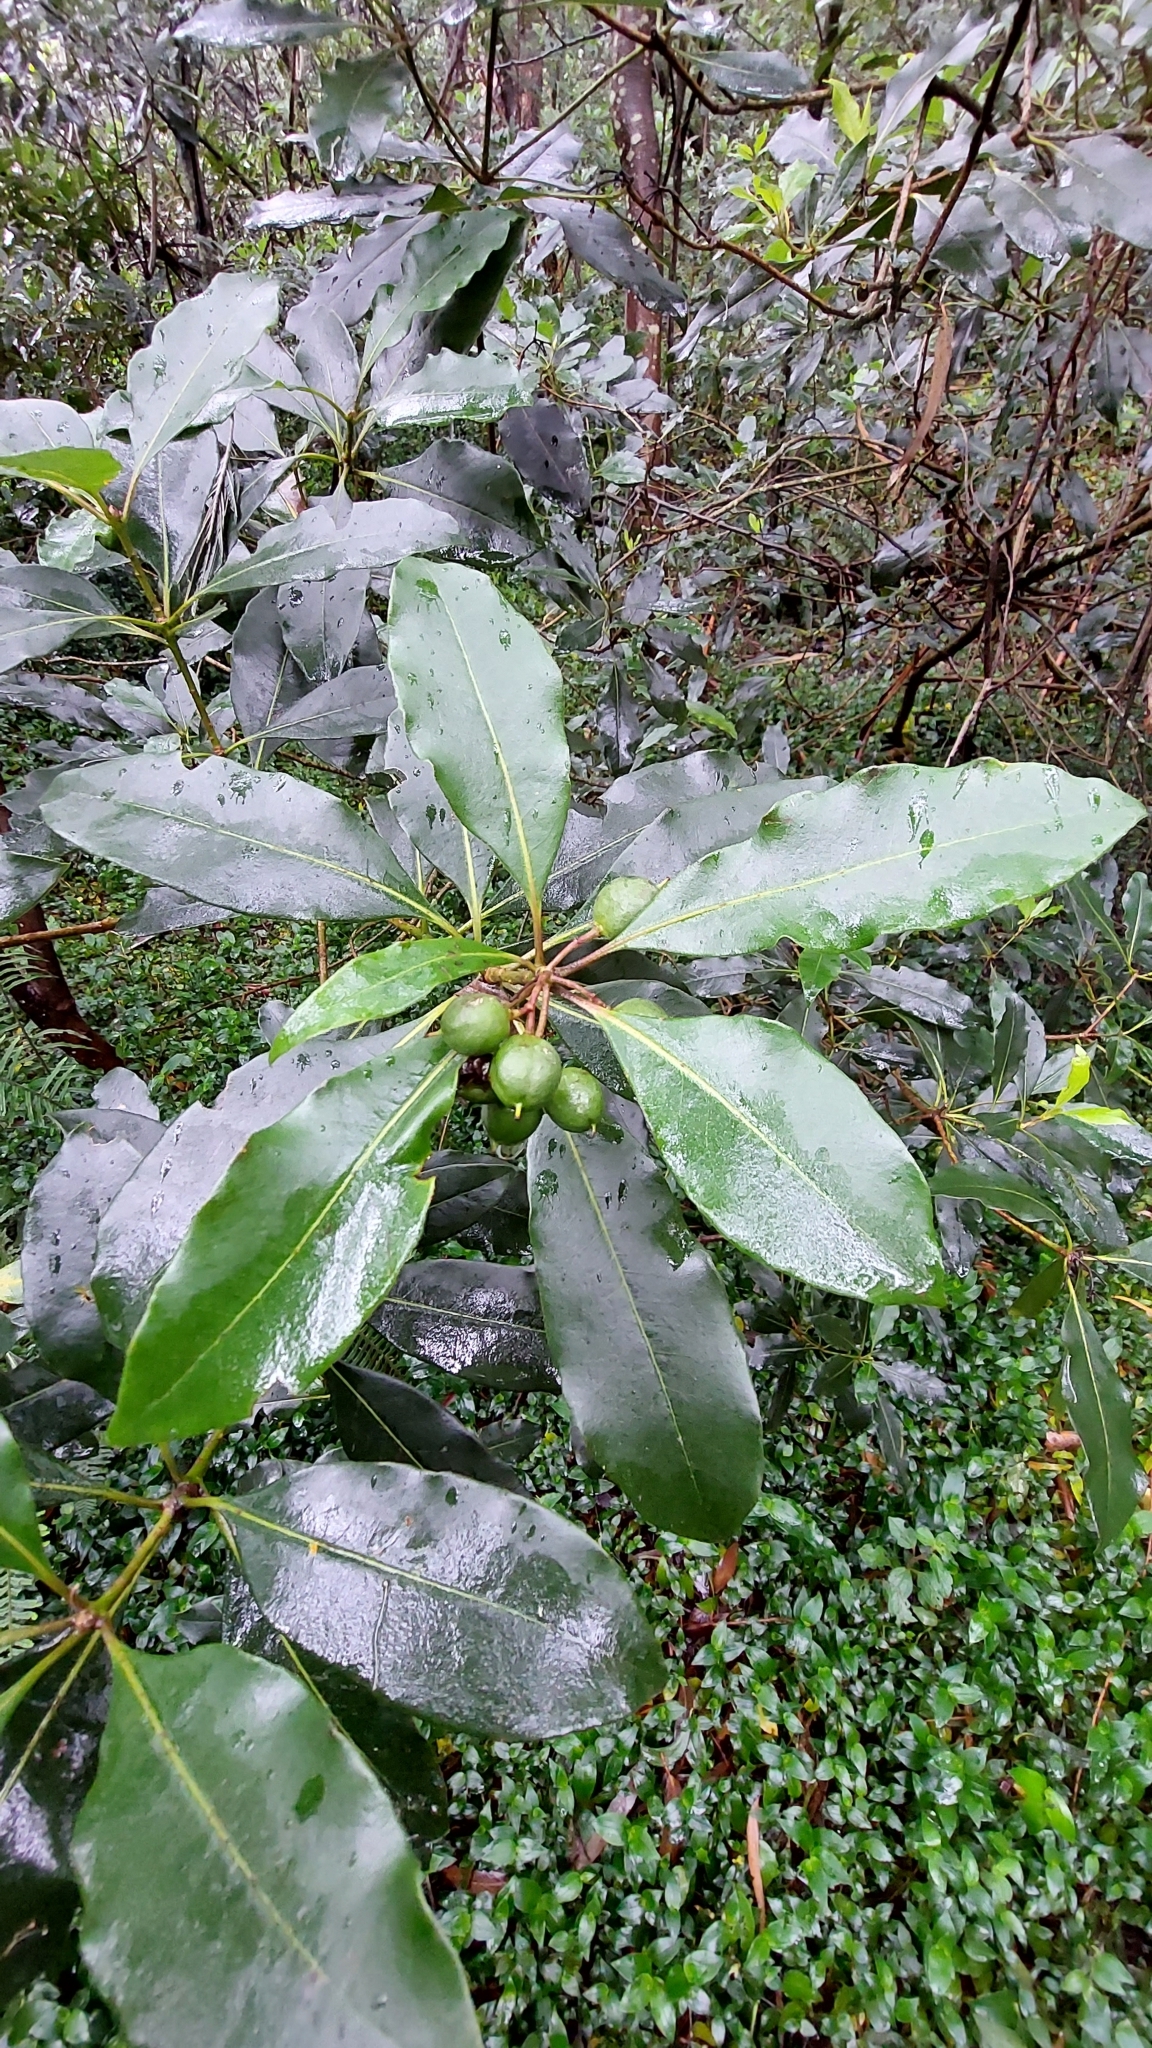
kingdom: Plantae
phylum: Tracheophyta
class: Magnoliopsida
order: Apiales
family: Pittosporaceae
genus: Pittosporum
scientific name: Pittosporum undulatum
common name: Australian cheesewood
